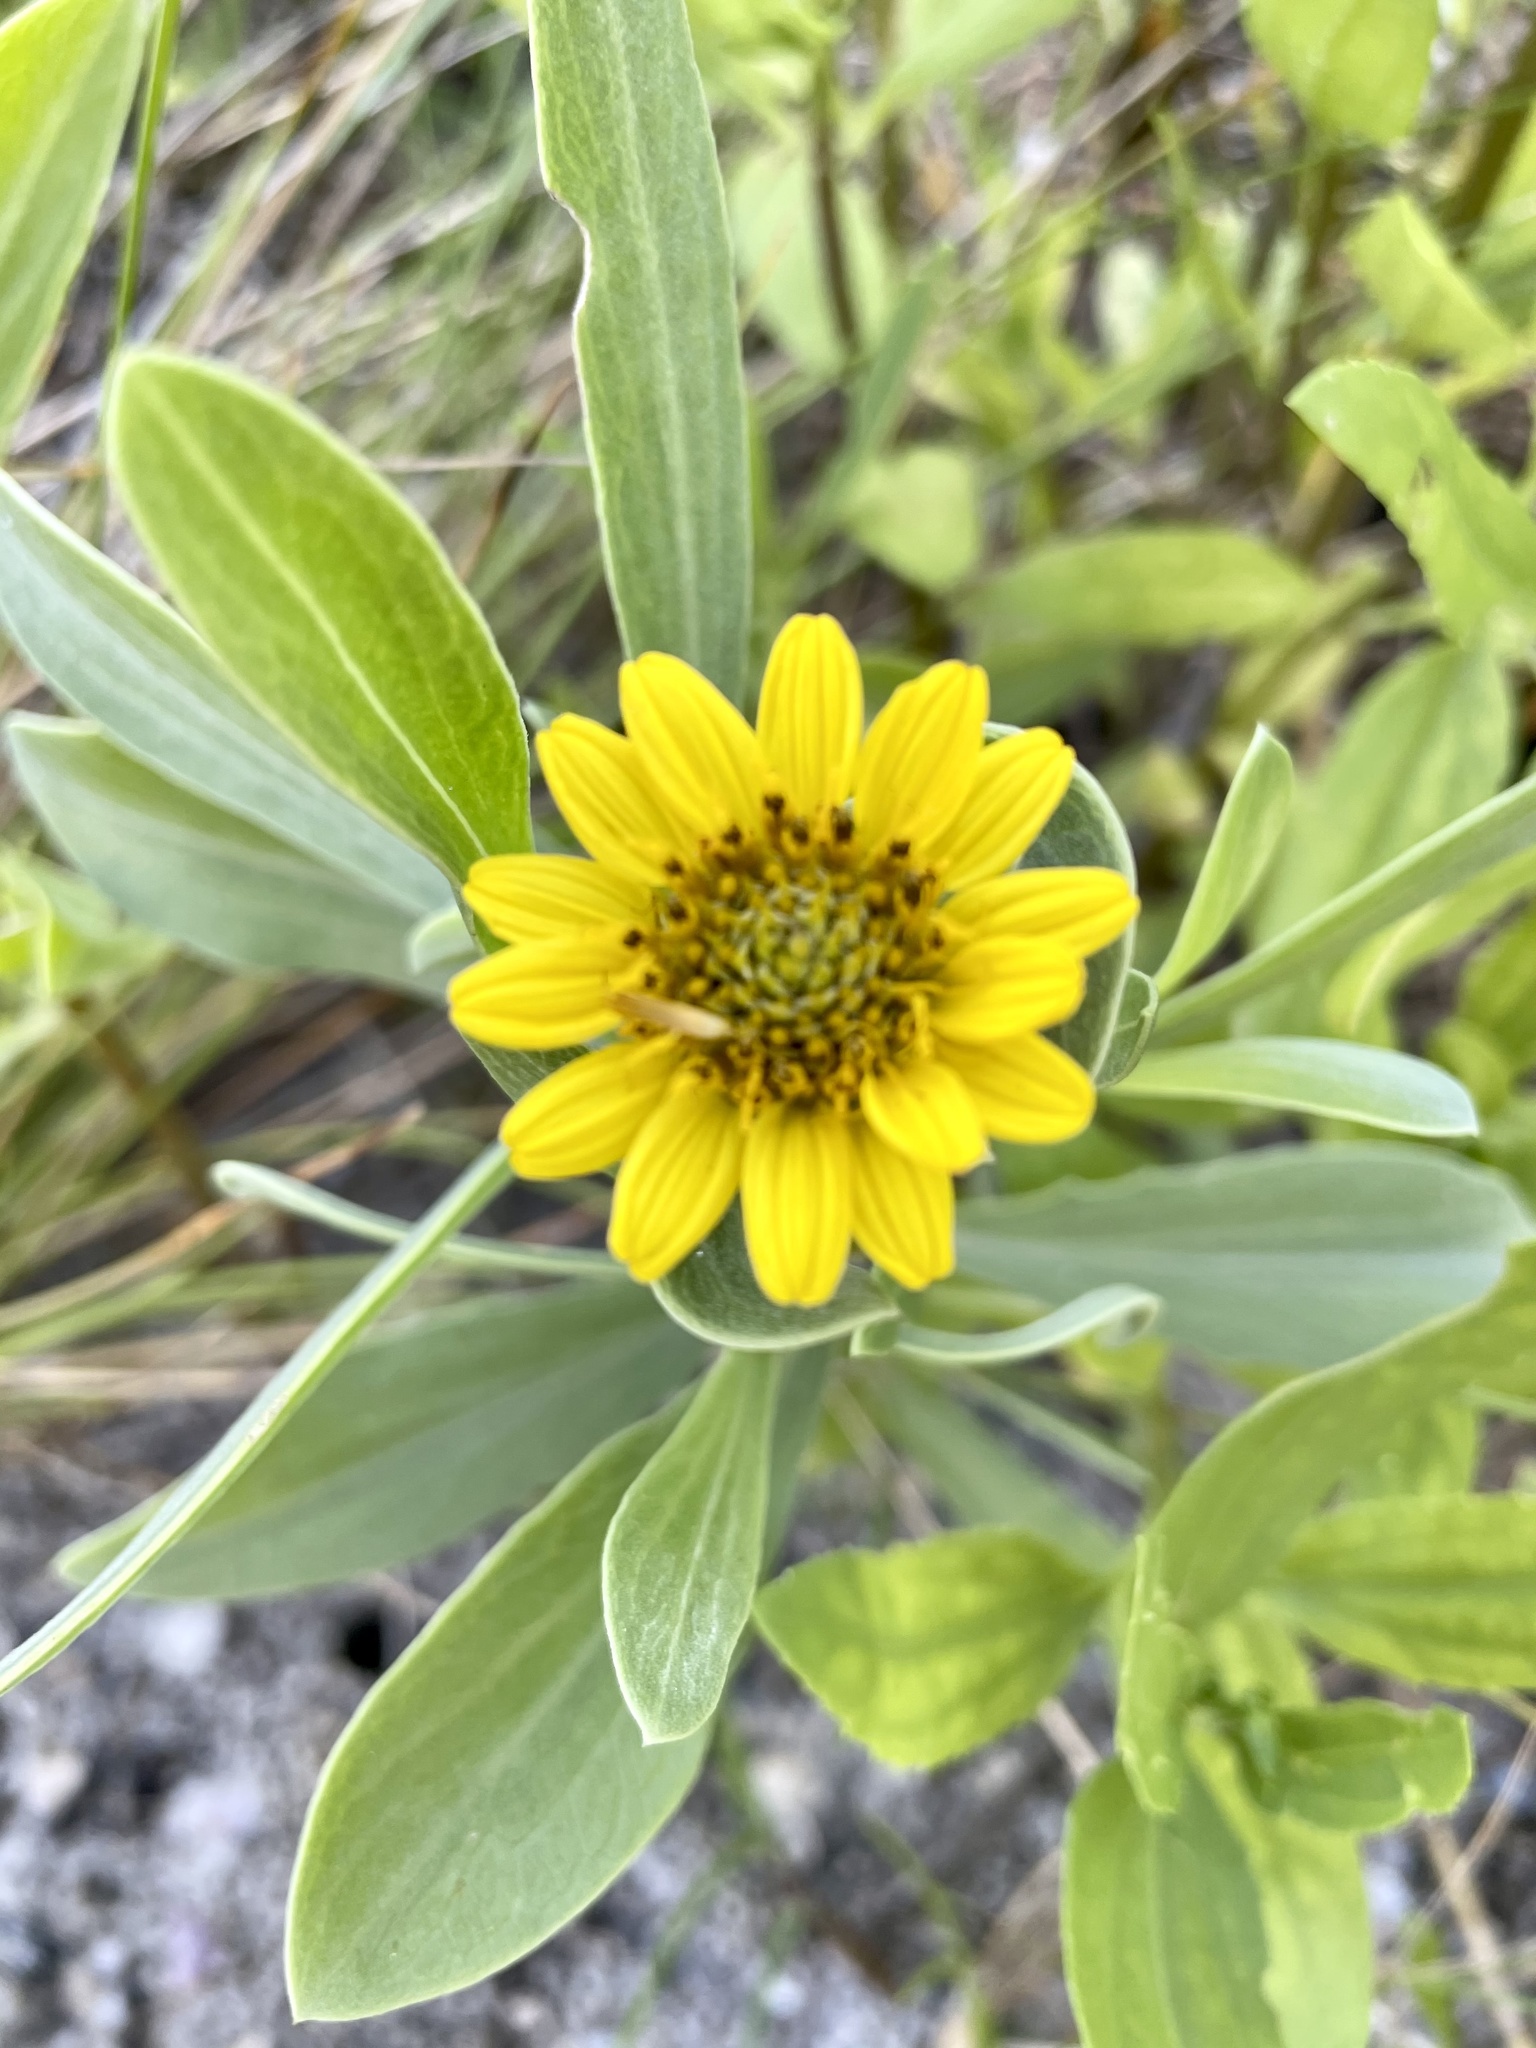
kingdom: Plantae
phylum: Tracheophyta
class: Magnoliopsida
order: Asterales
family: Asteraceae
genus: Borrichia
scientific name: Borrichia frutescens
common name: Sea oxeye
